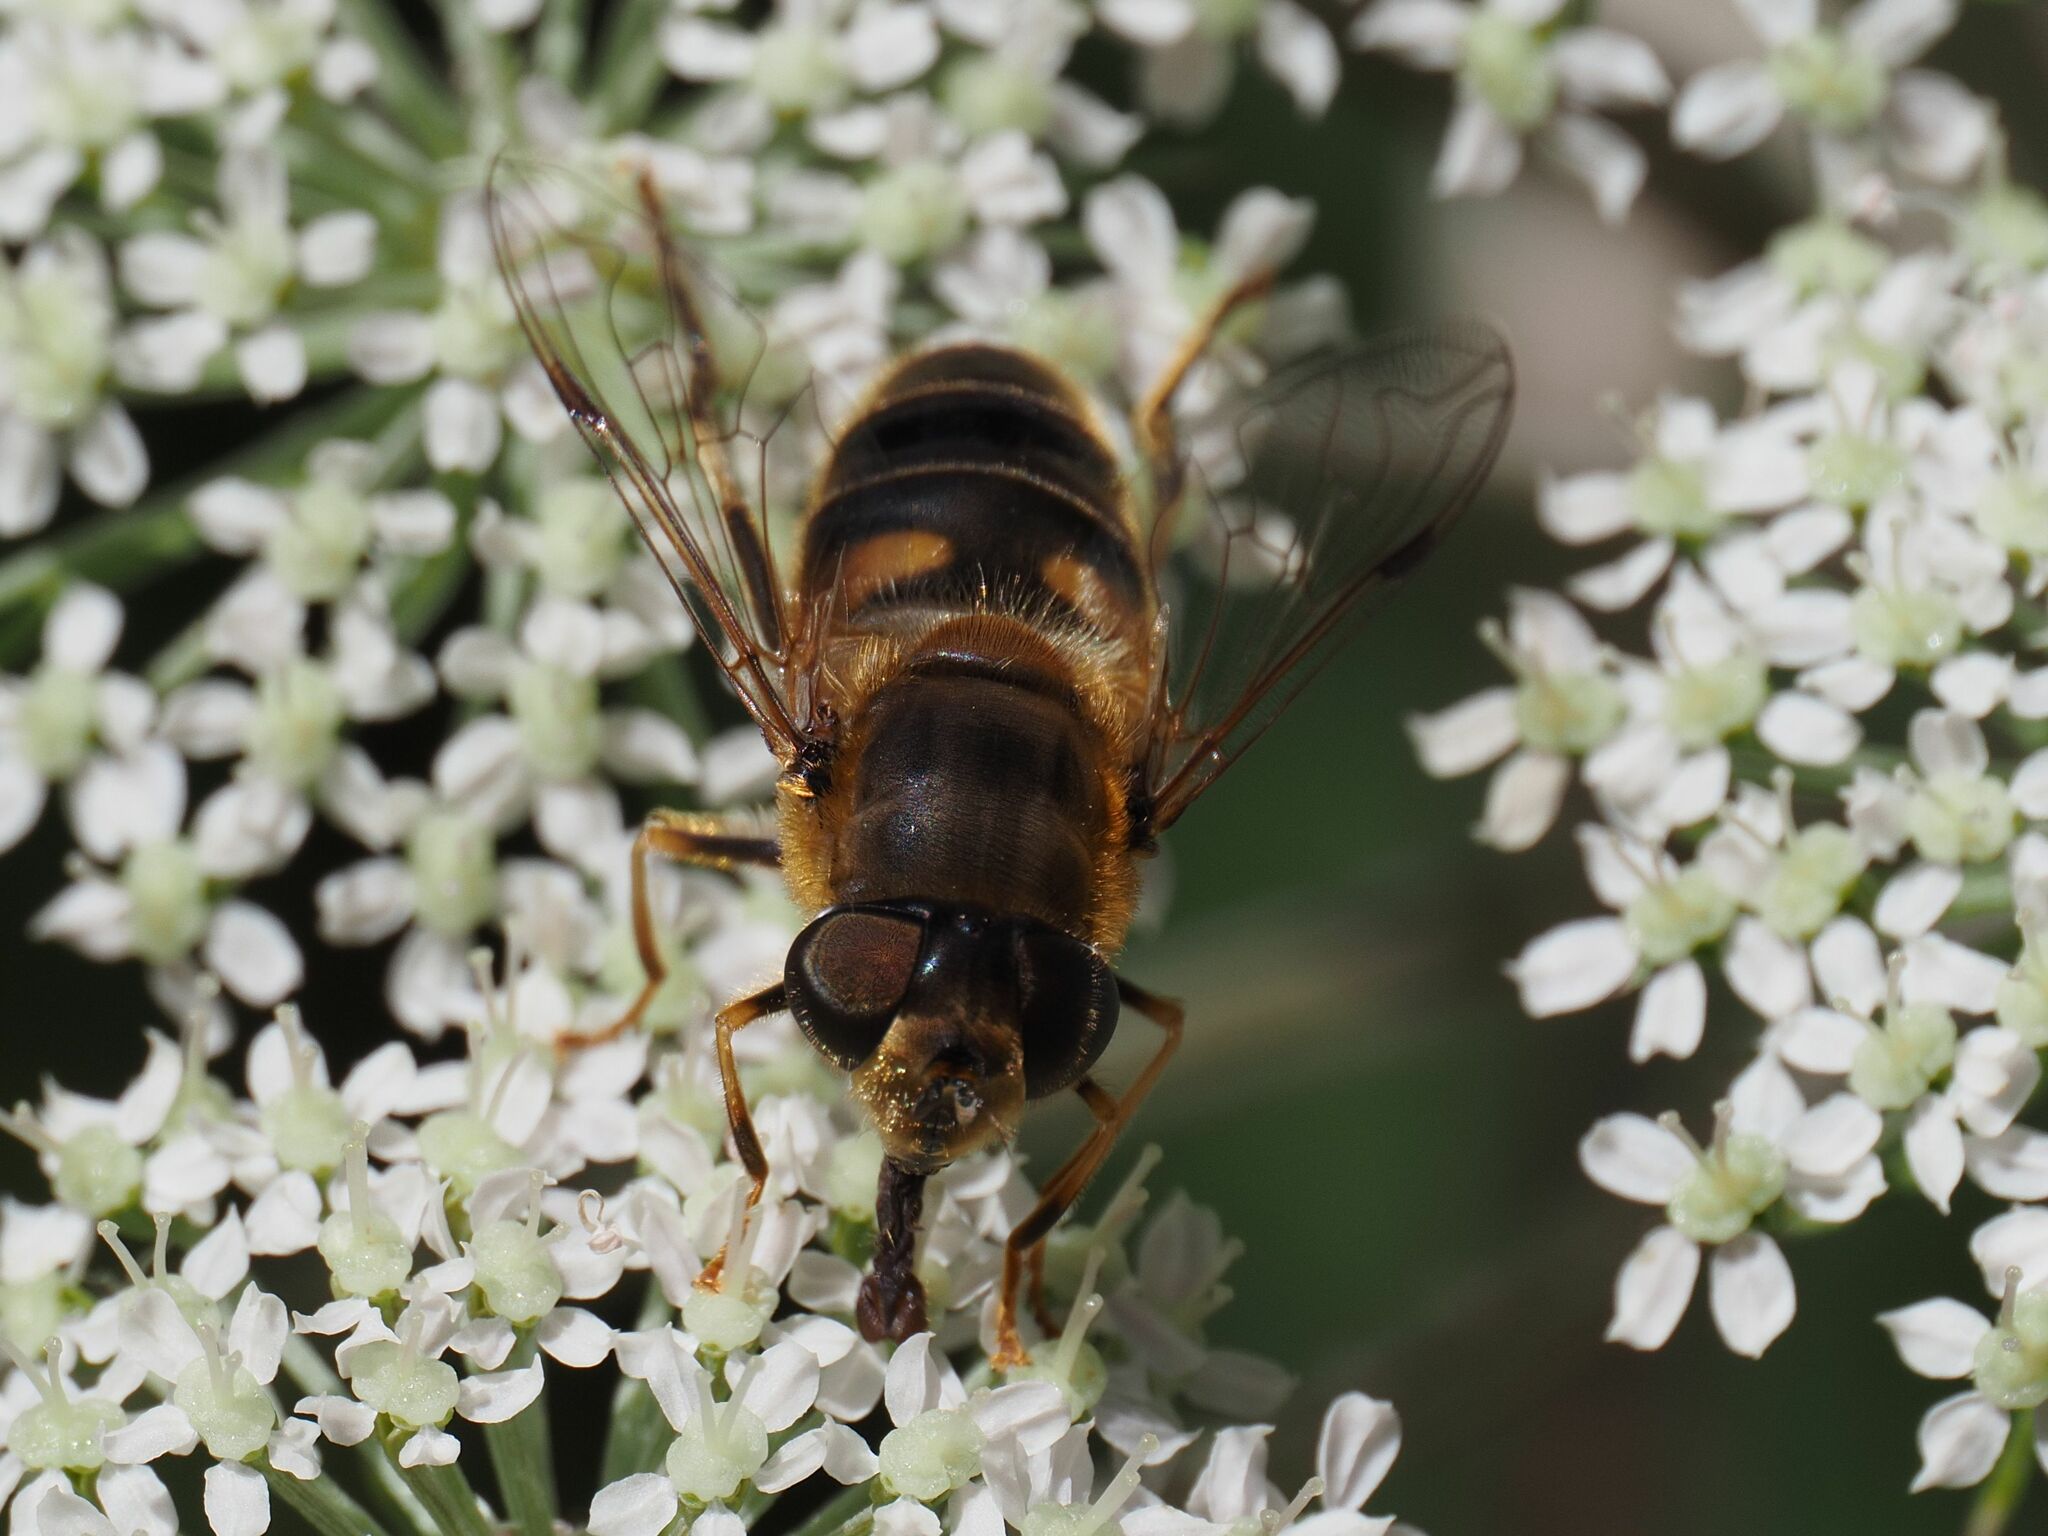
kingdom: Animalia
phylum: Arthropoda
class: Insecta
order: Diptera
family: Syrphidae
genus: Eristalis
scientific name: Eristalis pertinax
